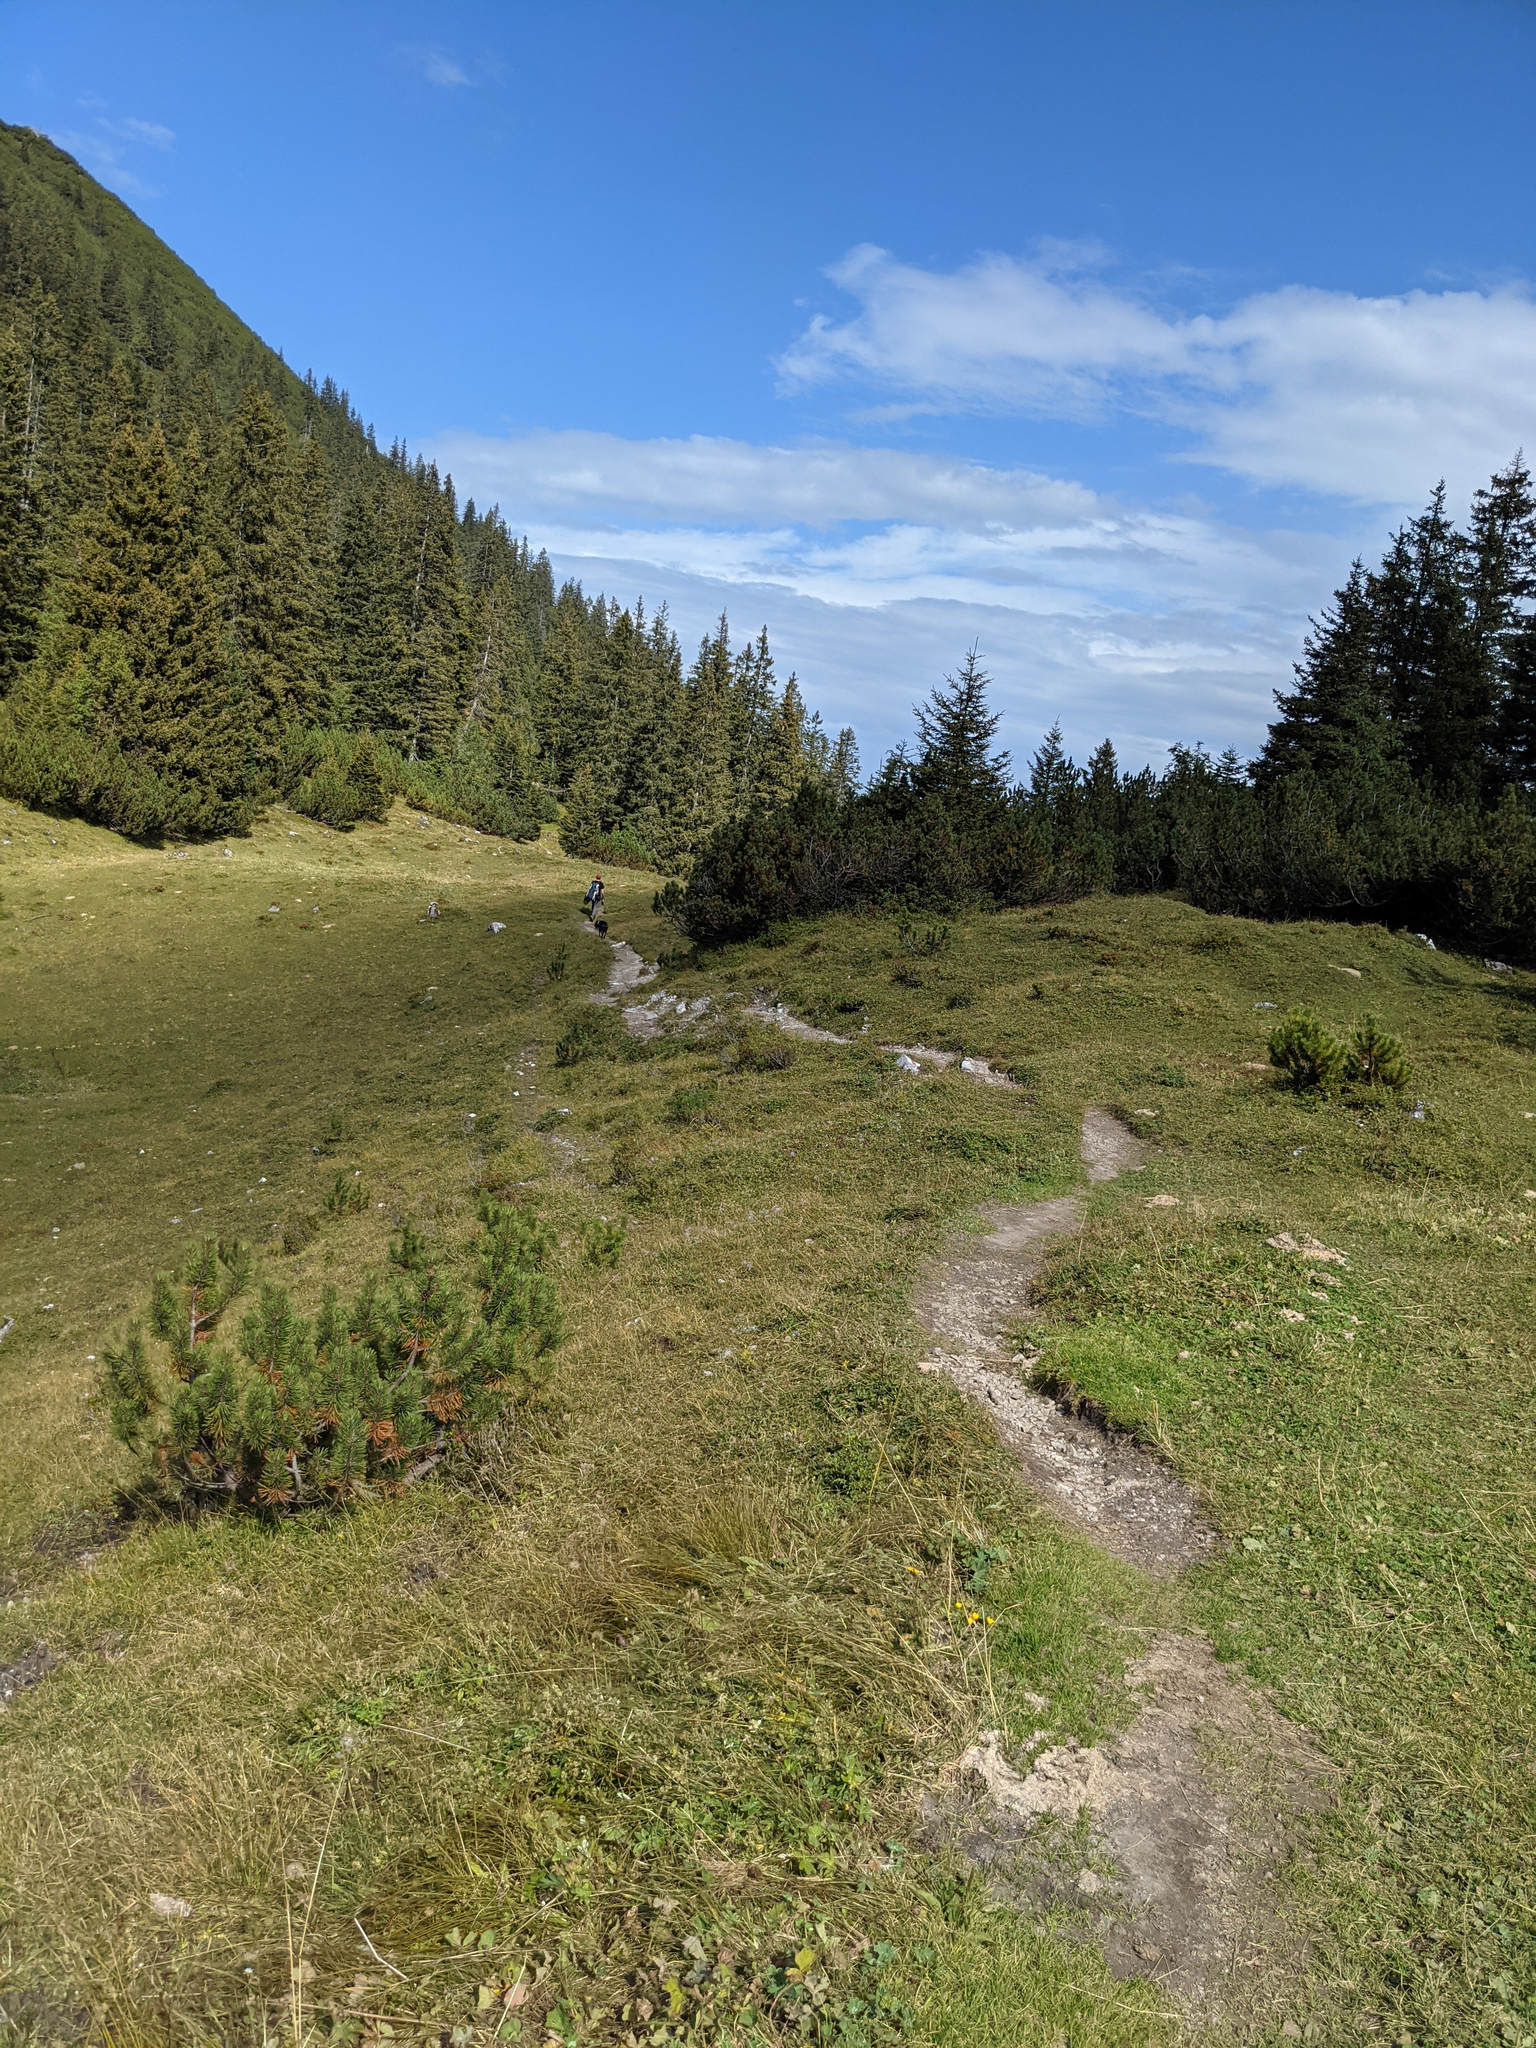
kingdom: Plantae
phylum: Tracheophyta
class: Pinopsida
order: Pinales
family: Pinaceae
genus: Picea
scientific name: Picea abies
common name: Norway spruce
